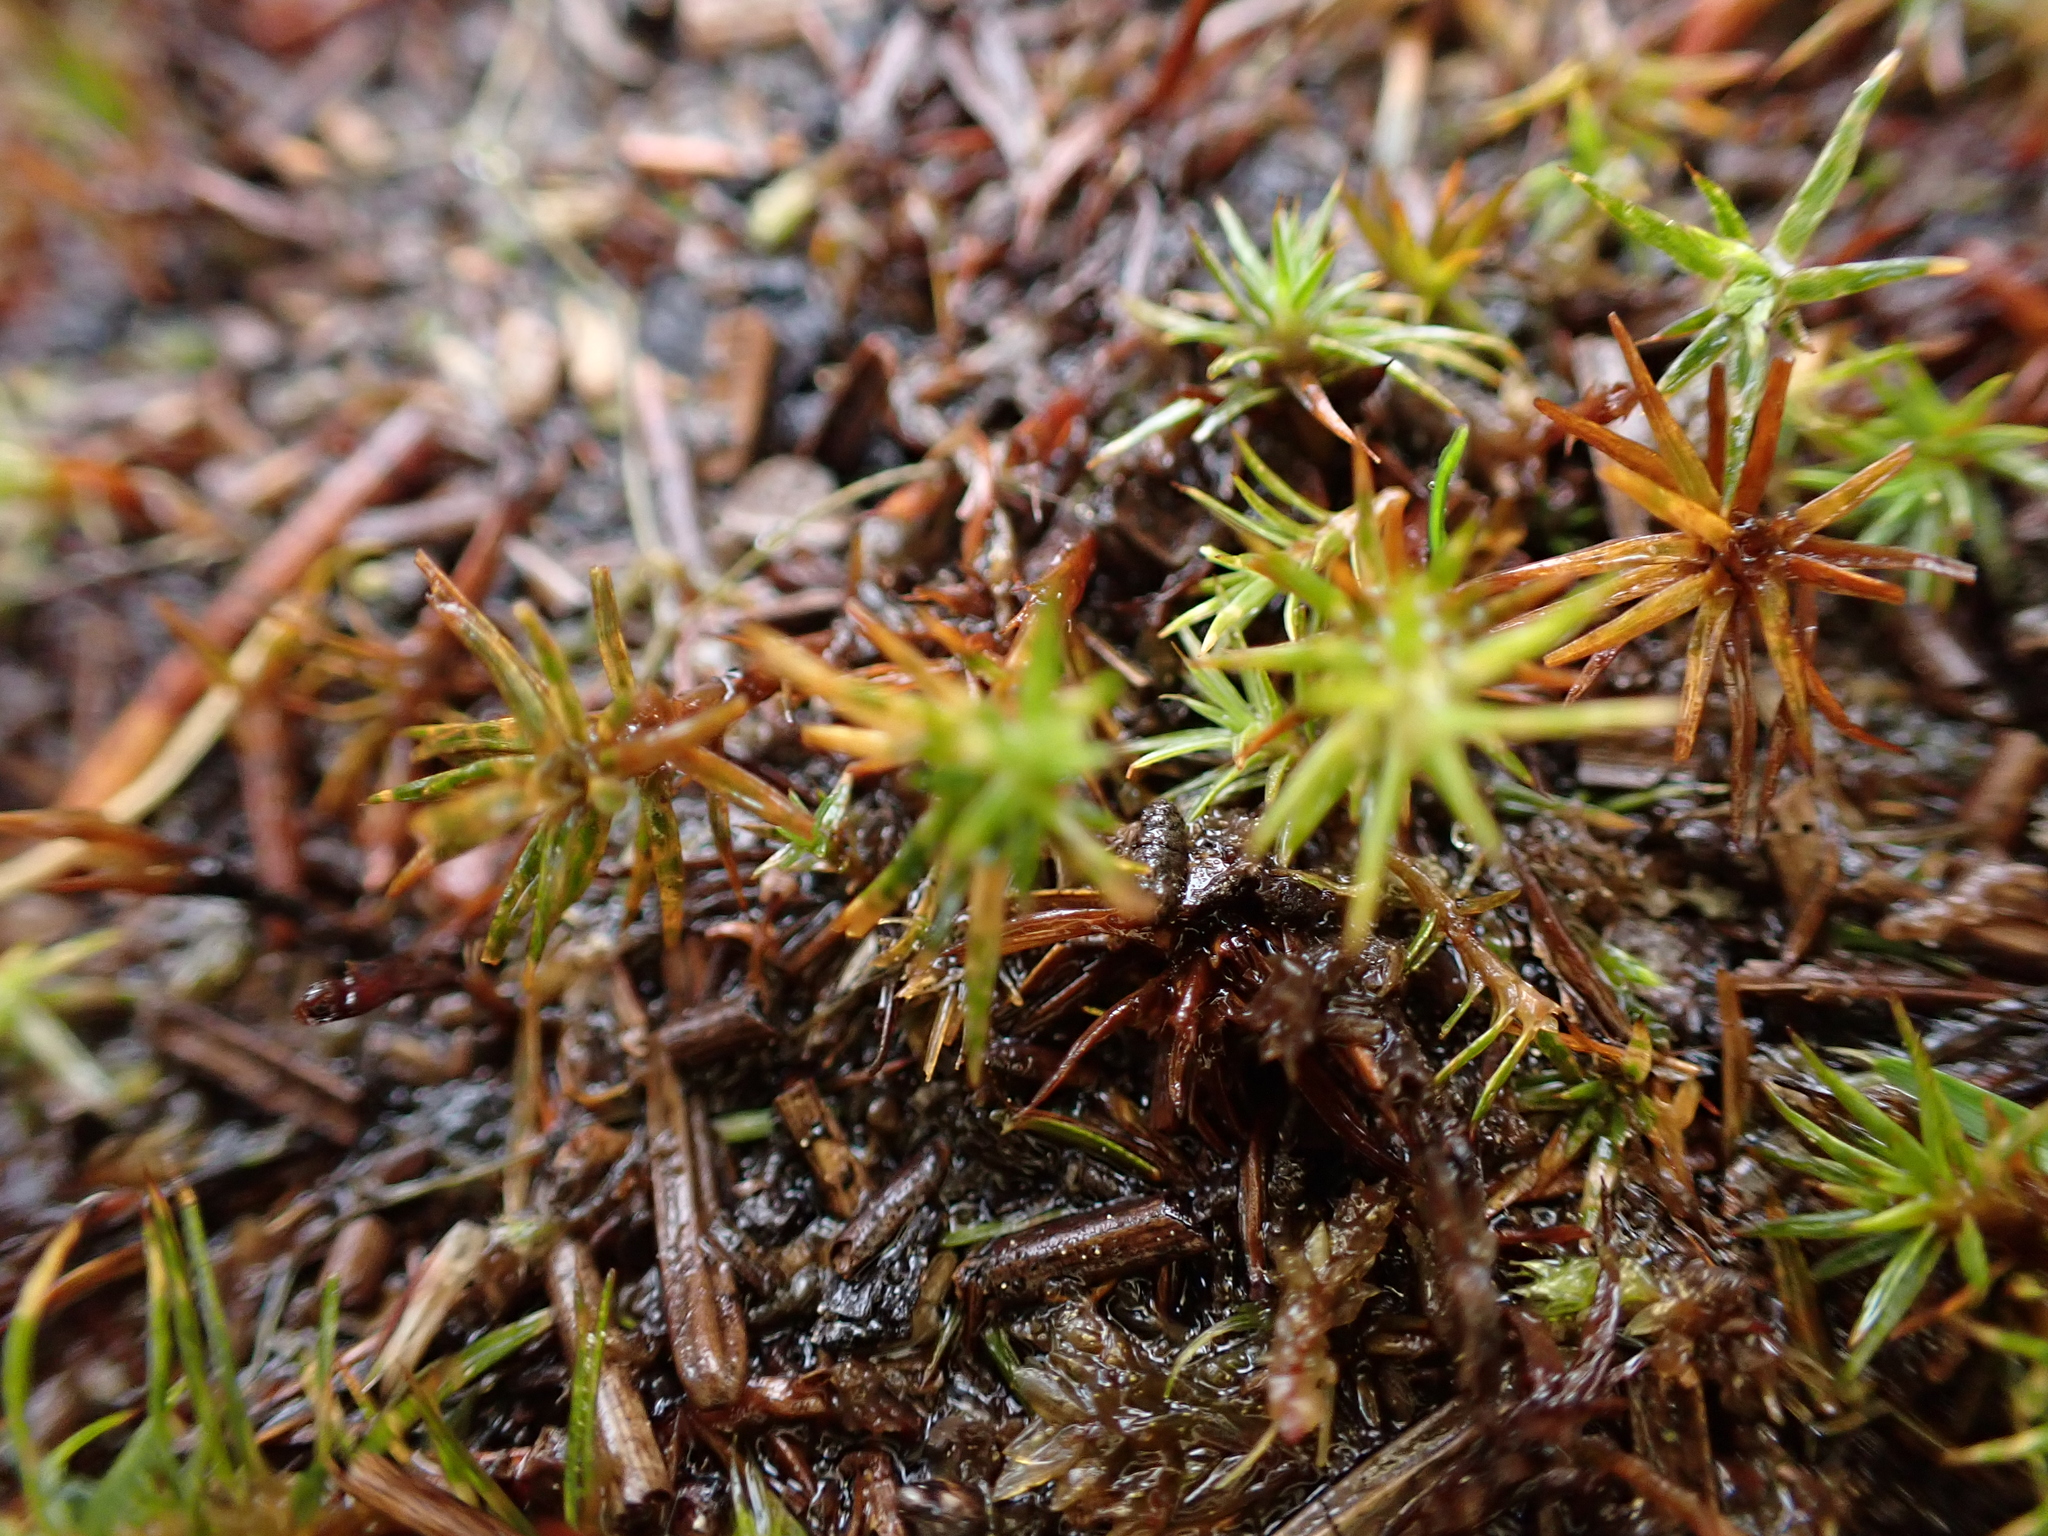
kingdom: Plantae
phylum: Bryophyta
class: Polytrichopsida
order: Polytrichales
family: Polytrichaceae
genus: Polytrichum
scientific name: Polytrichum juniperinum
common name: Juniper haircap moss
